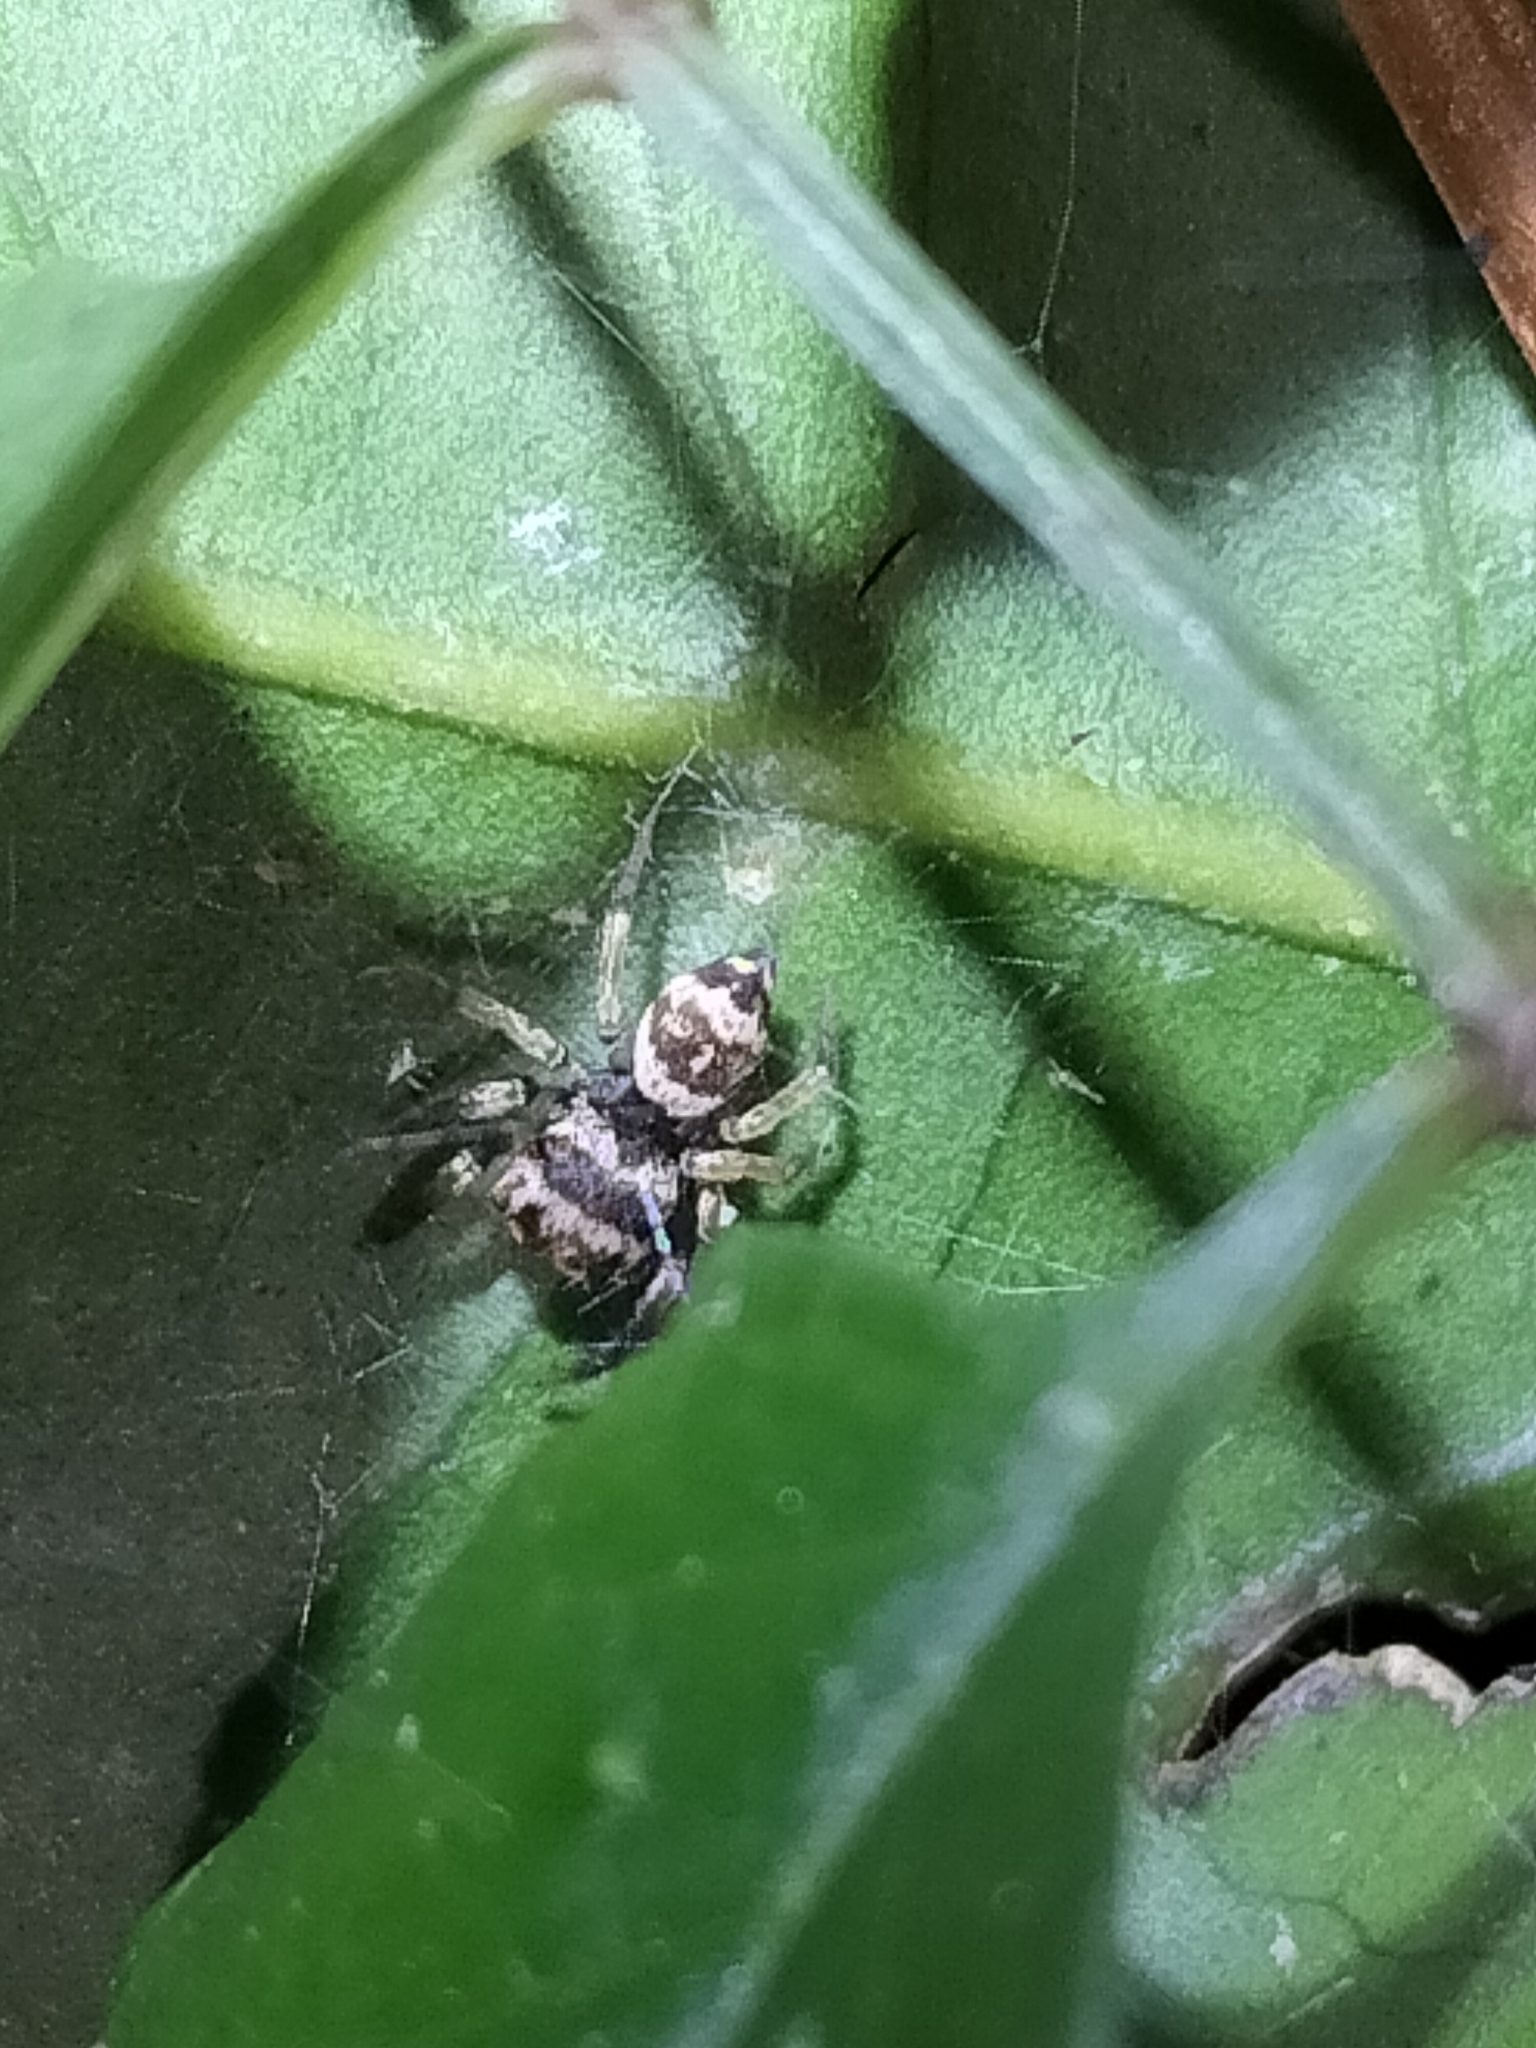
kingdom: Animalia
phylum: Arthropoda
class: Arachnida
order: Araneae
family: Salticidae
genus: Euryattus
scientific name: Euryattus bleekeri
